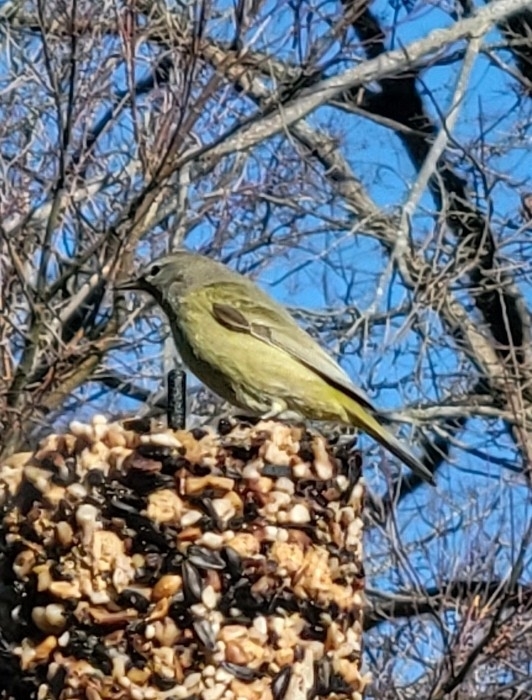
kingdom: Animalia
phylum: Chordata
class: Aves
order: Passeriformes
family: Parulidae
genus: Leiothlypis
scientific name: Leiothlypis celata
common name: Orange-crowned warbler
